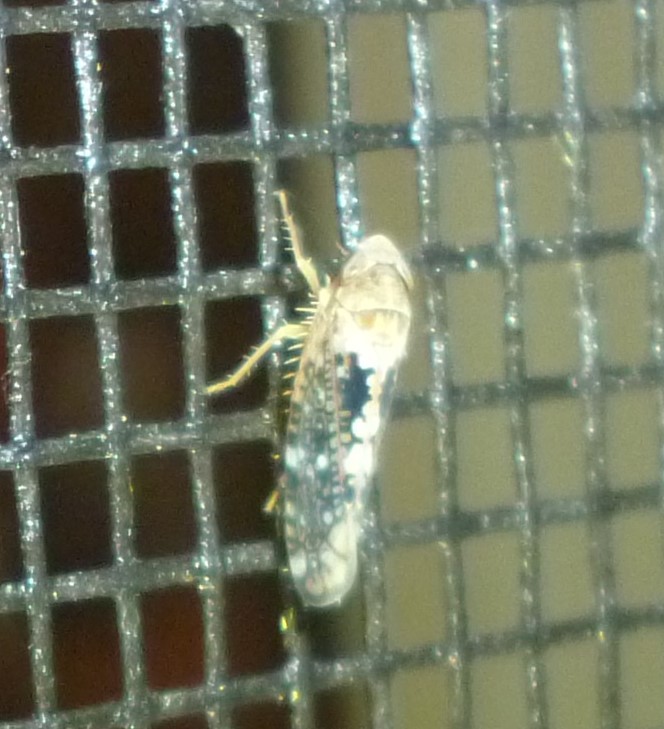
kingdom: Animalia
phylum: Arthropoda
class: Insecta
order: Hemiptera
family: Cicadellidae
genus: Prescottia
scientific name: Prescottia lobata
